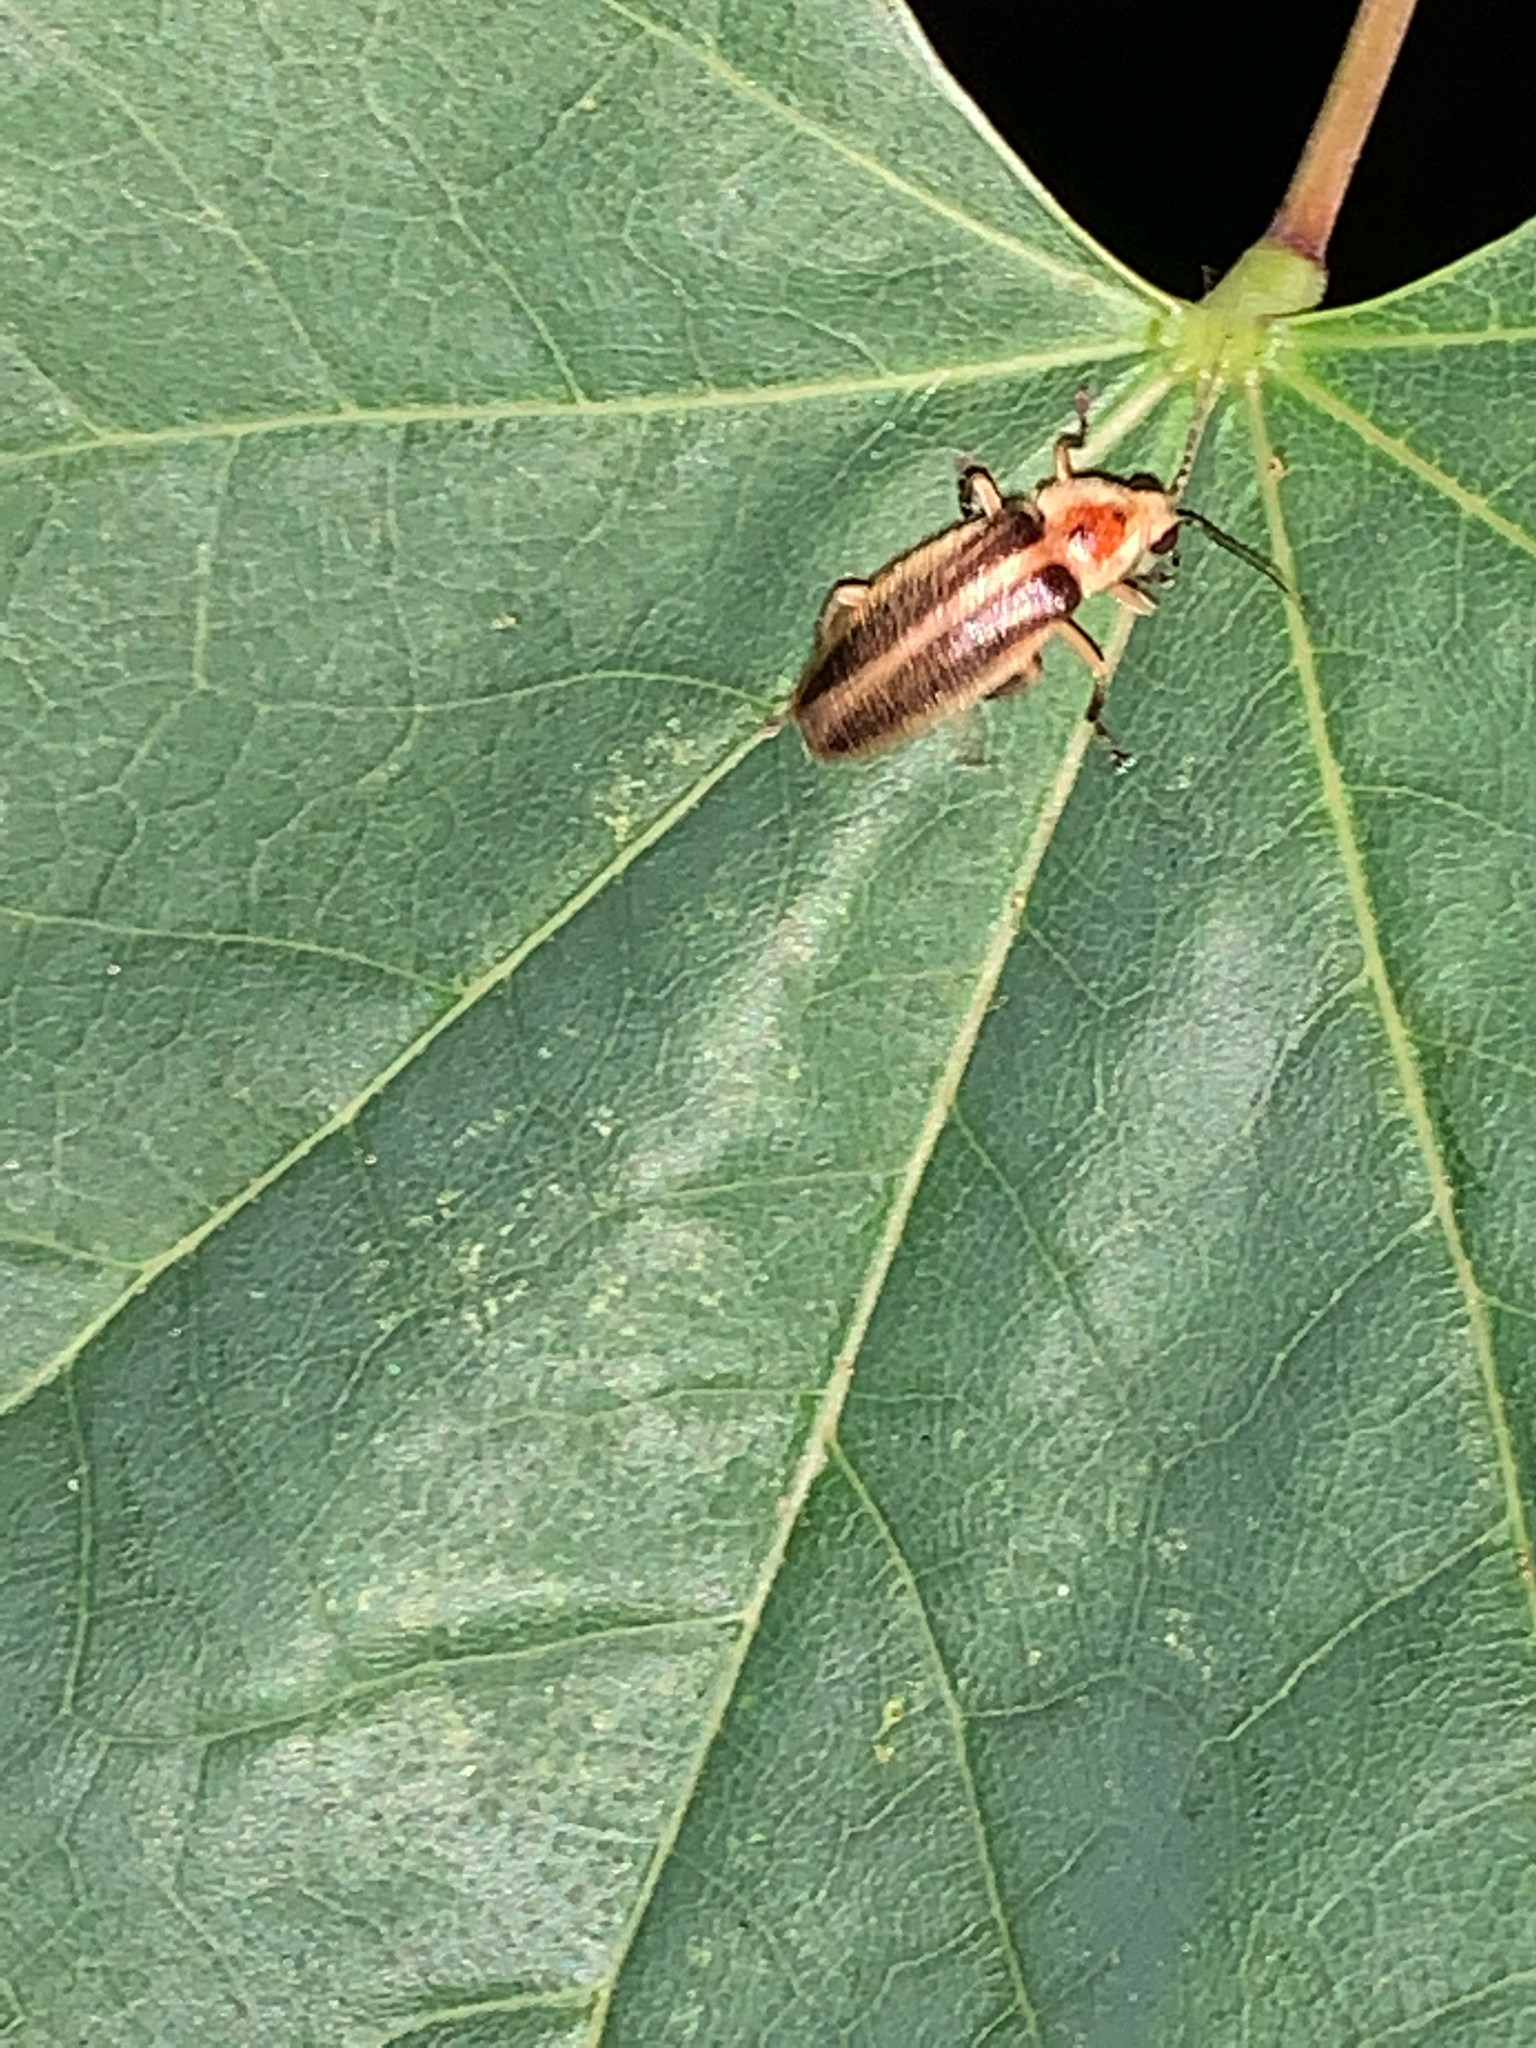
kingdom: Animalia
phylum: Arthropoda
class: Insecta
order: Coleoptera
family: Lampyridae
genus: Photuris
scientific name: Photuris
